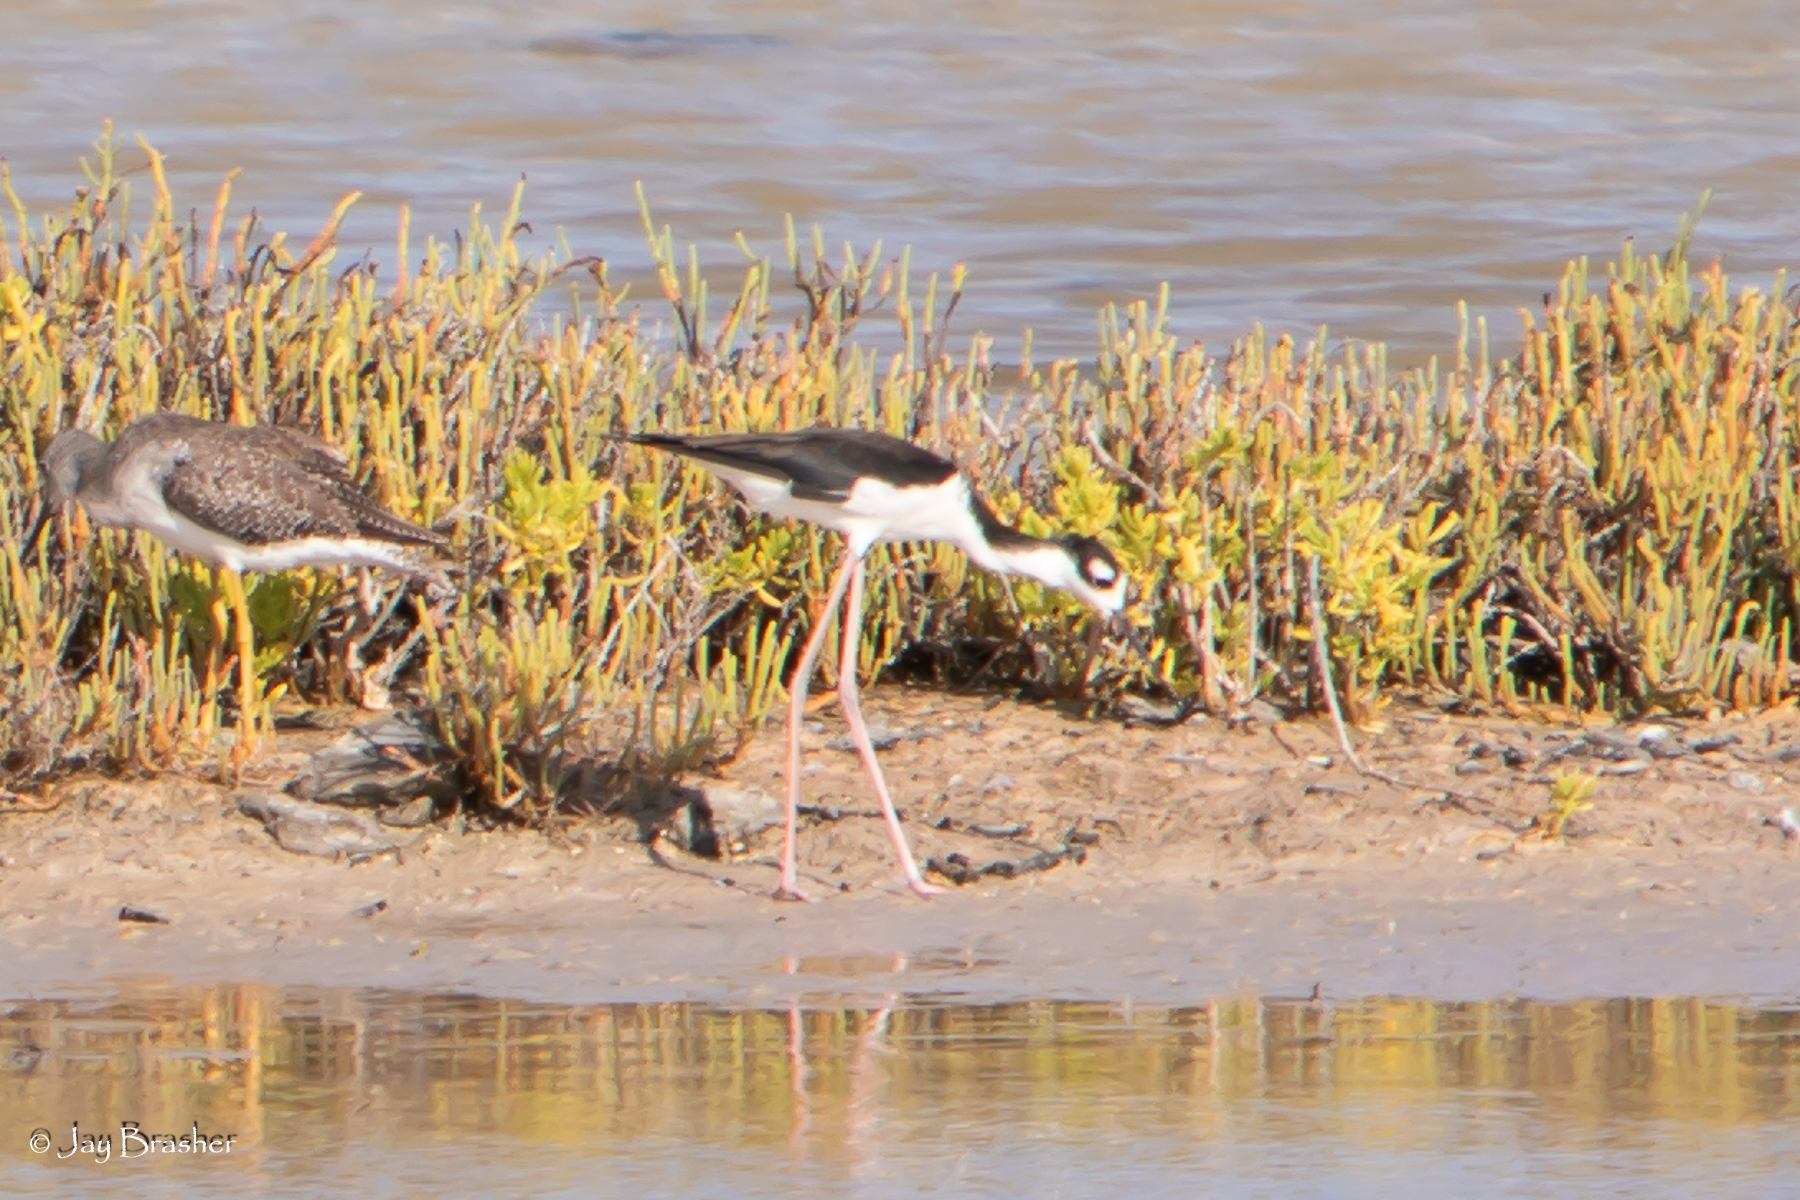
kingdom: Animalia
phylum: Chordata
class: Aves
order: Charadriiformes
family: Recurvirostridae
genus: Himantopus
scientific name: Himantopus mexicanus
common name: Black-necked stilt
